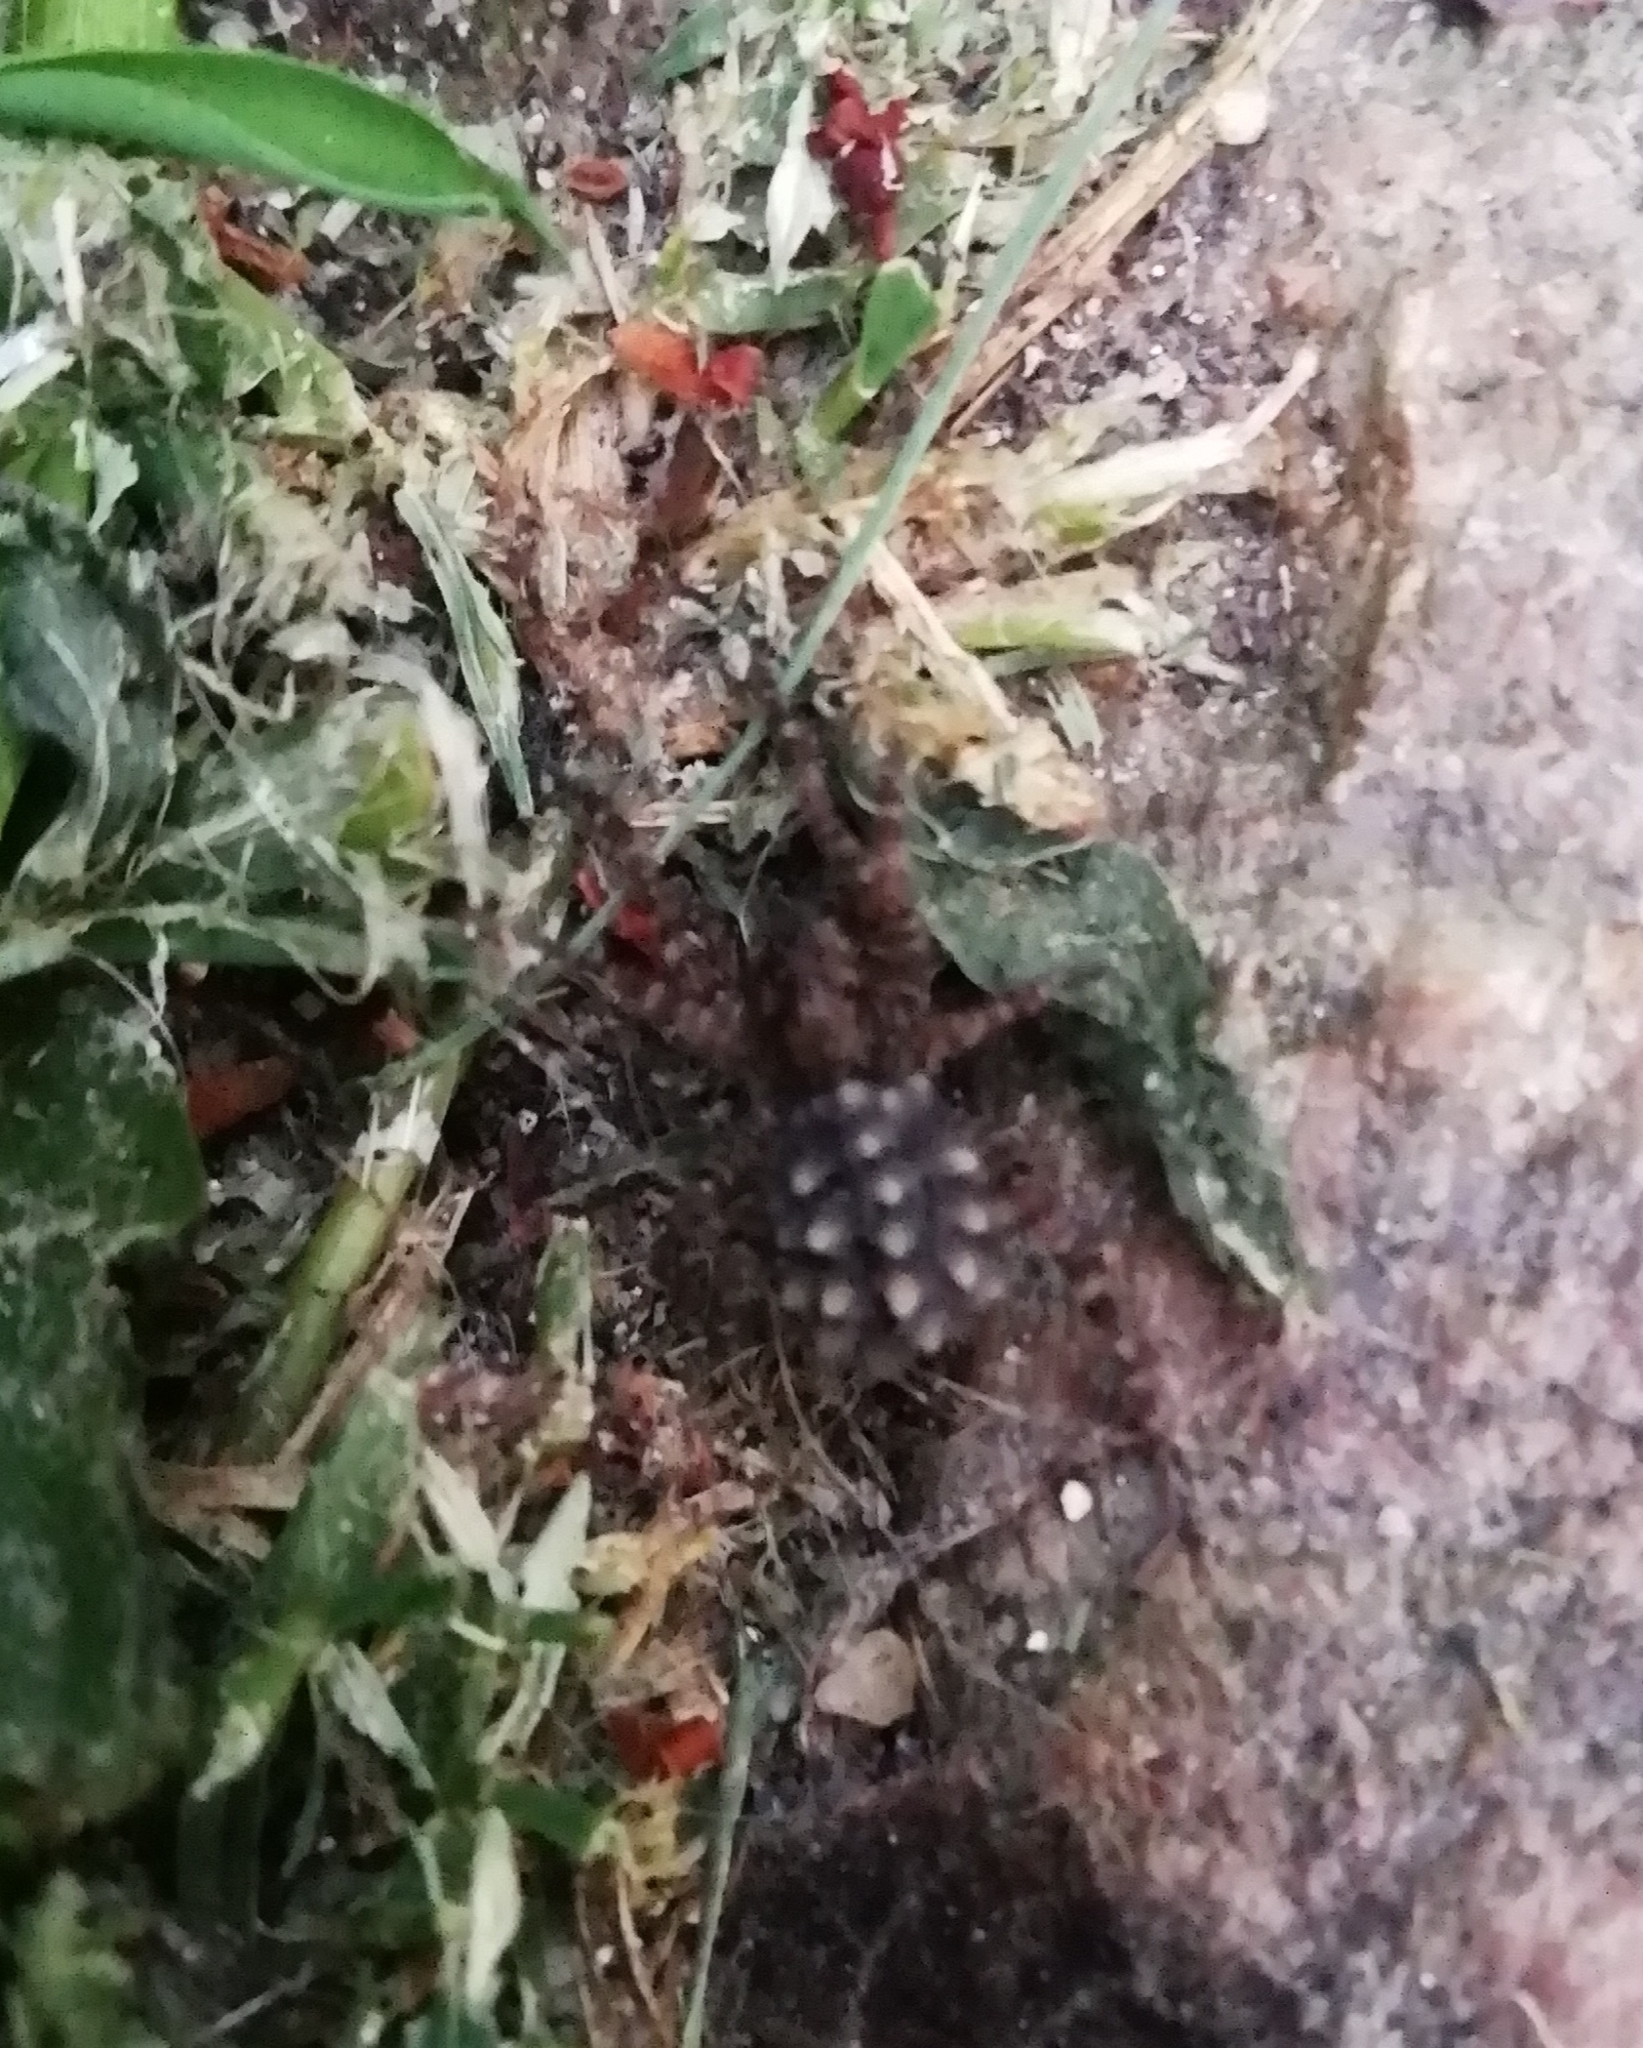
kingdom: Animalia
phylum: Arthropoda
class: Arachnida
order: Araneae
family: Lycosidae
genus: Paratrochosina
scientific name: Paratrochosina amica
